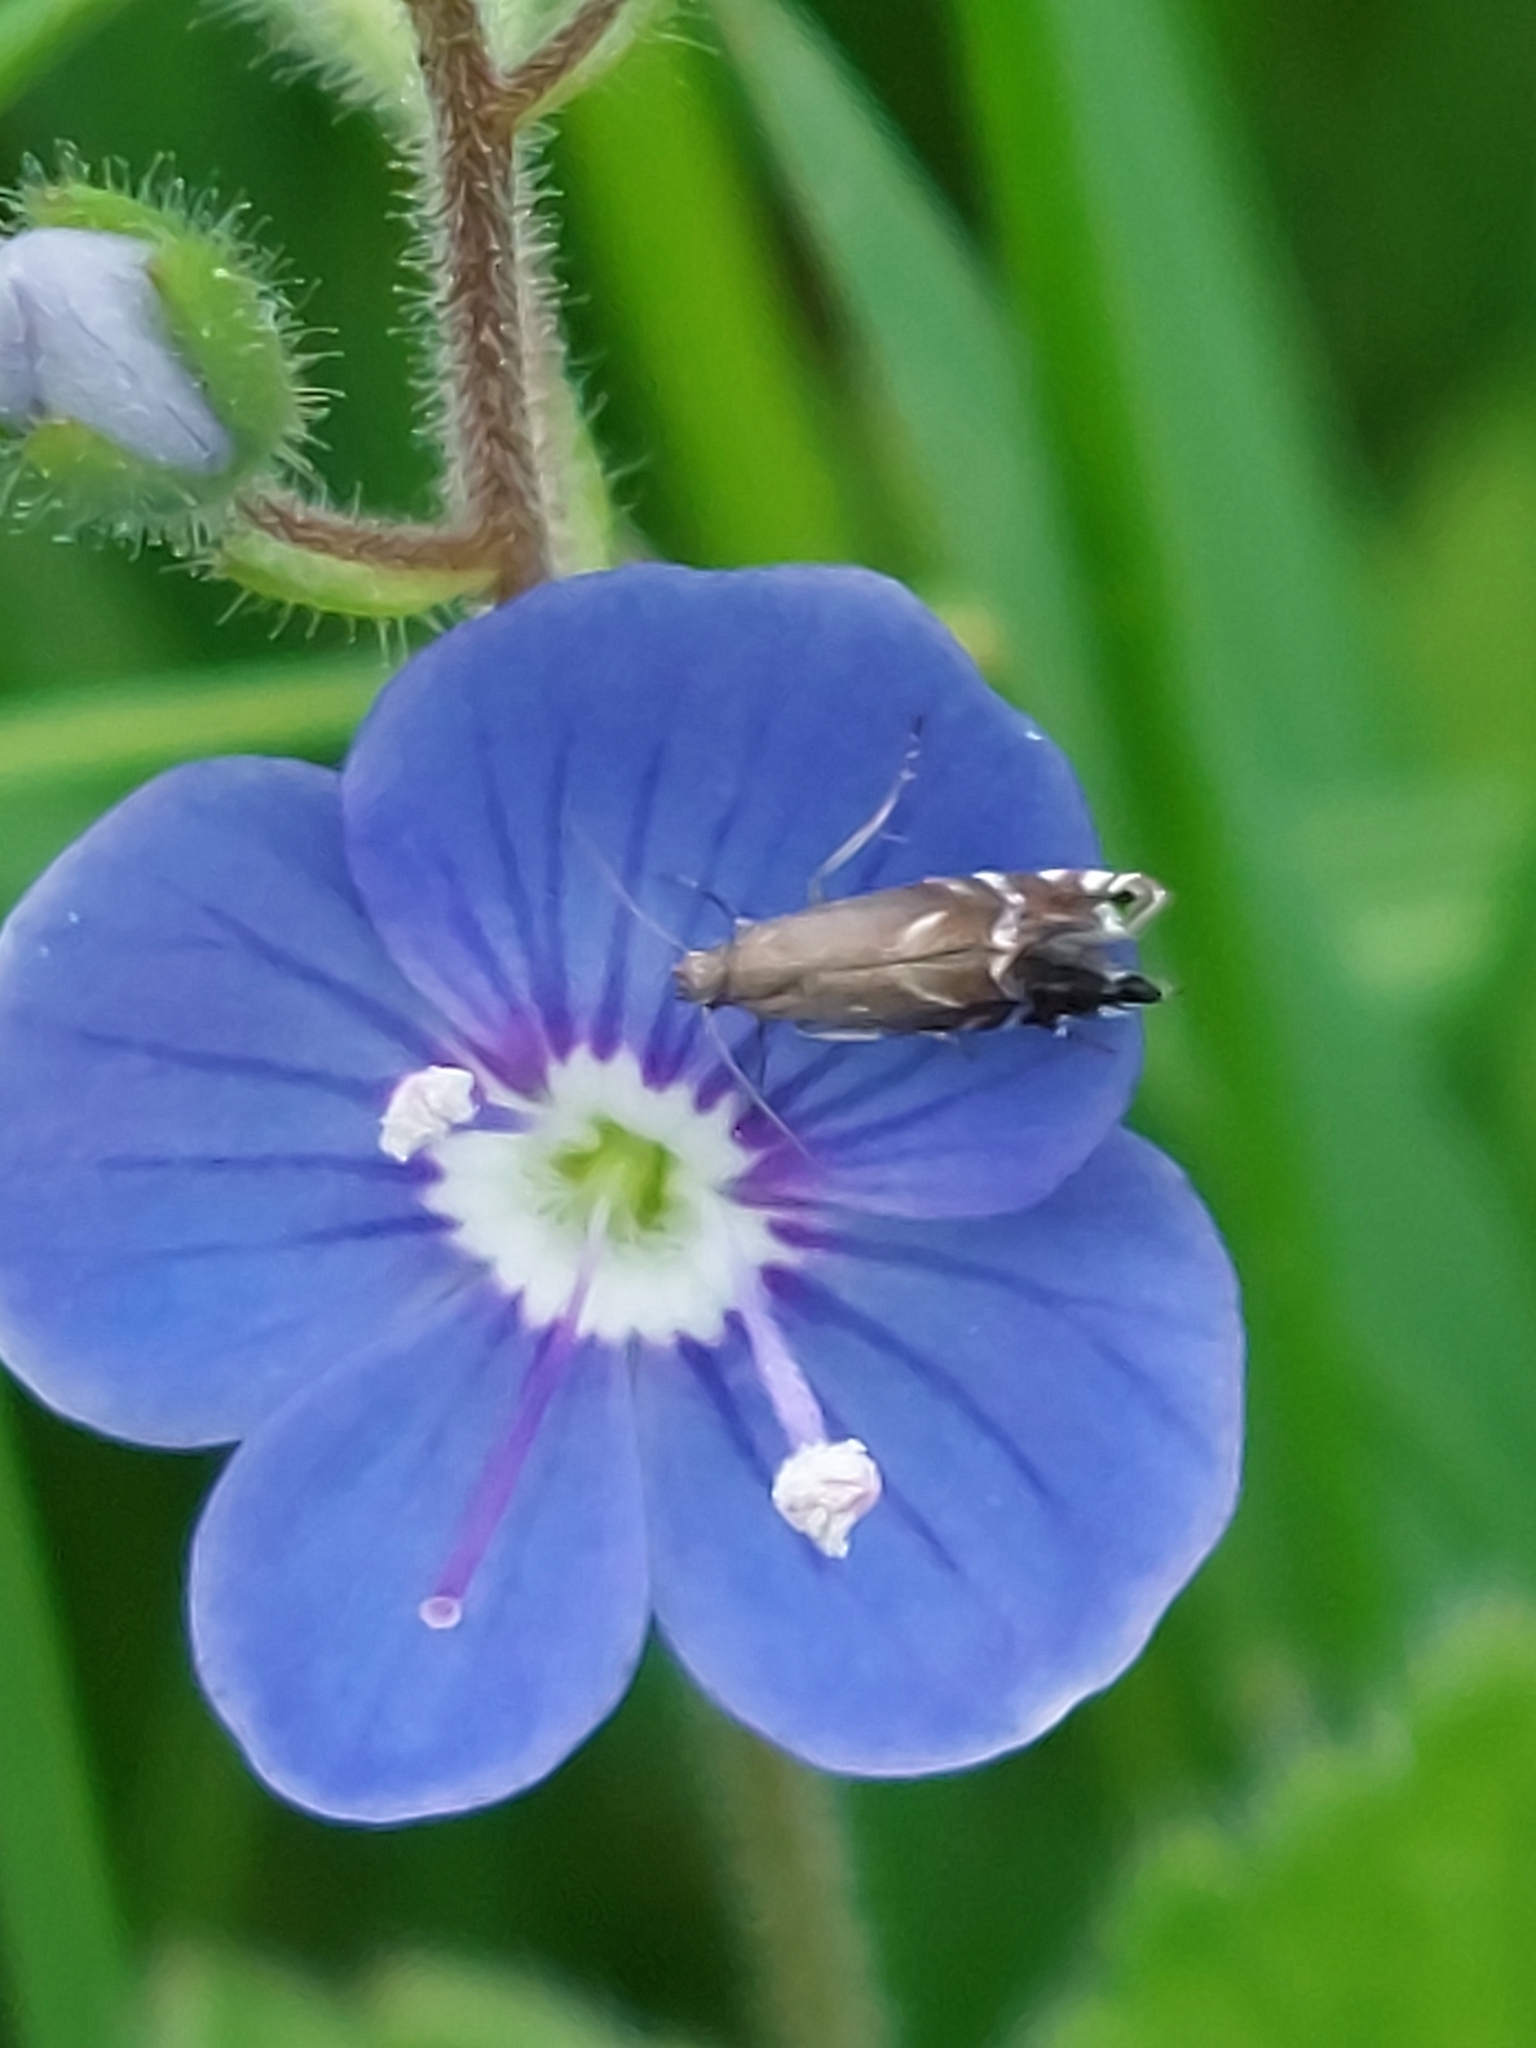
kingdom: Animalia
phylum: Arthropoda
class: Insecta
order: Lepidoptera
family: Glyphipterigidae
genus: Glyphipterix
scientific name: Glyphipterix simpliciella
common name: Cocksfoot moth
